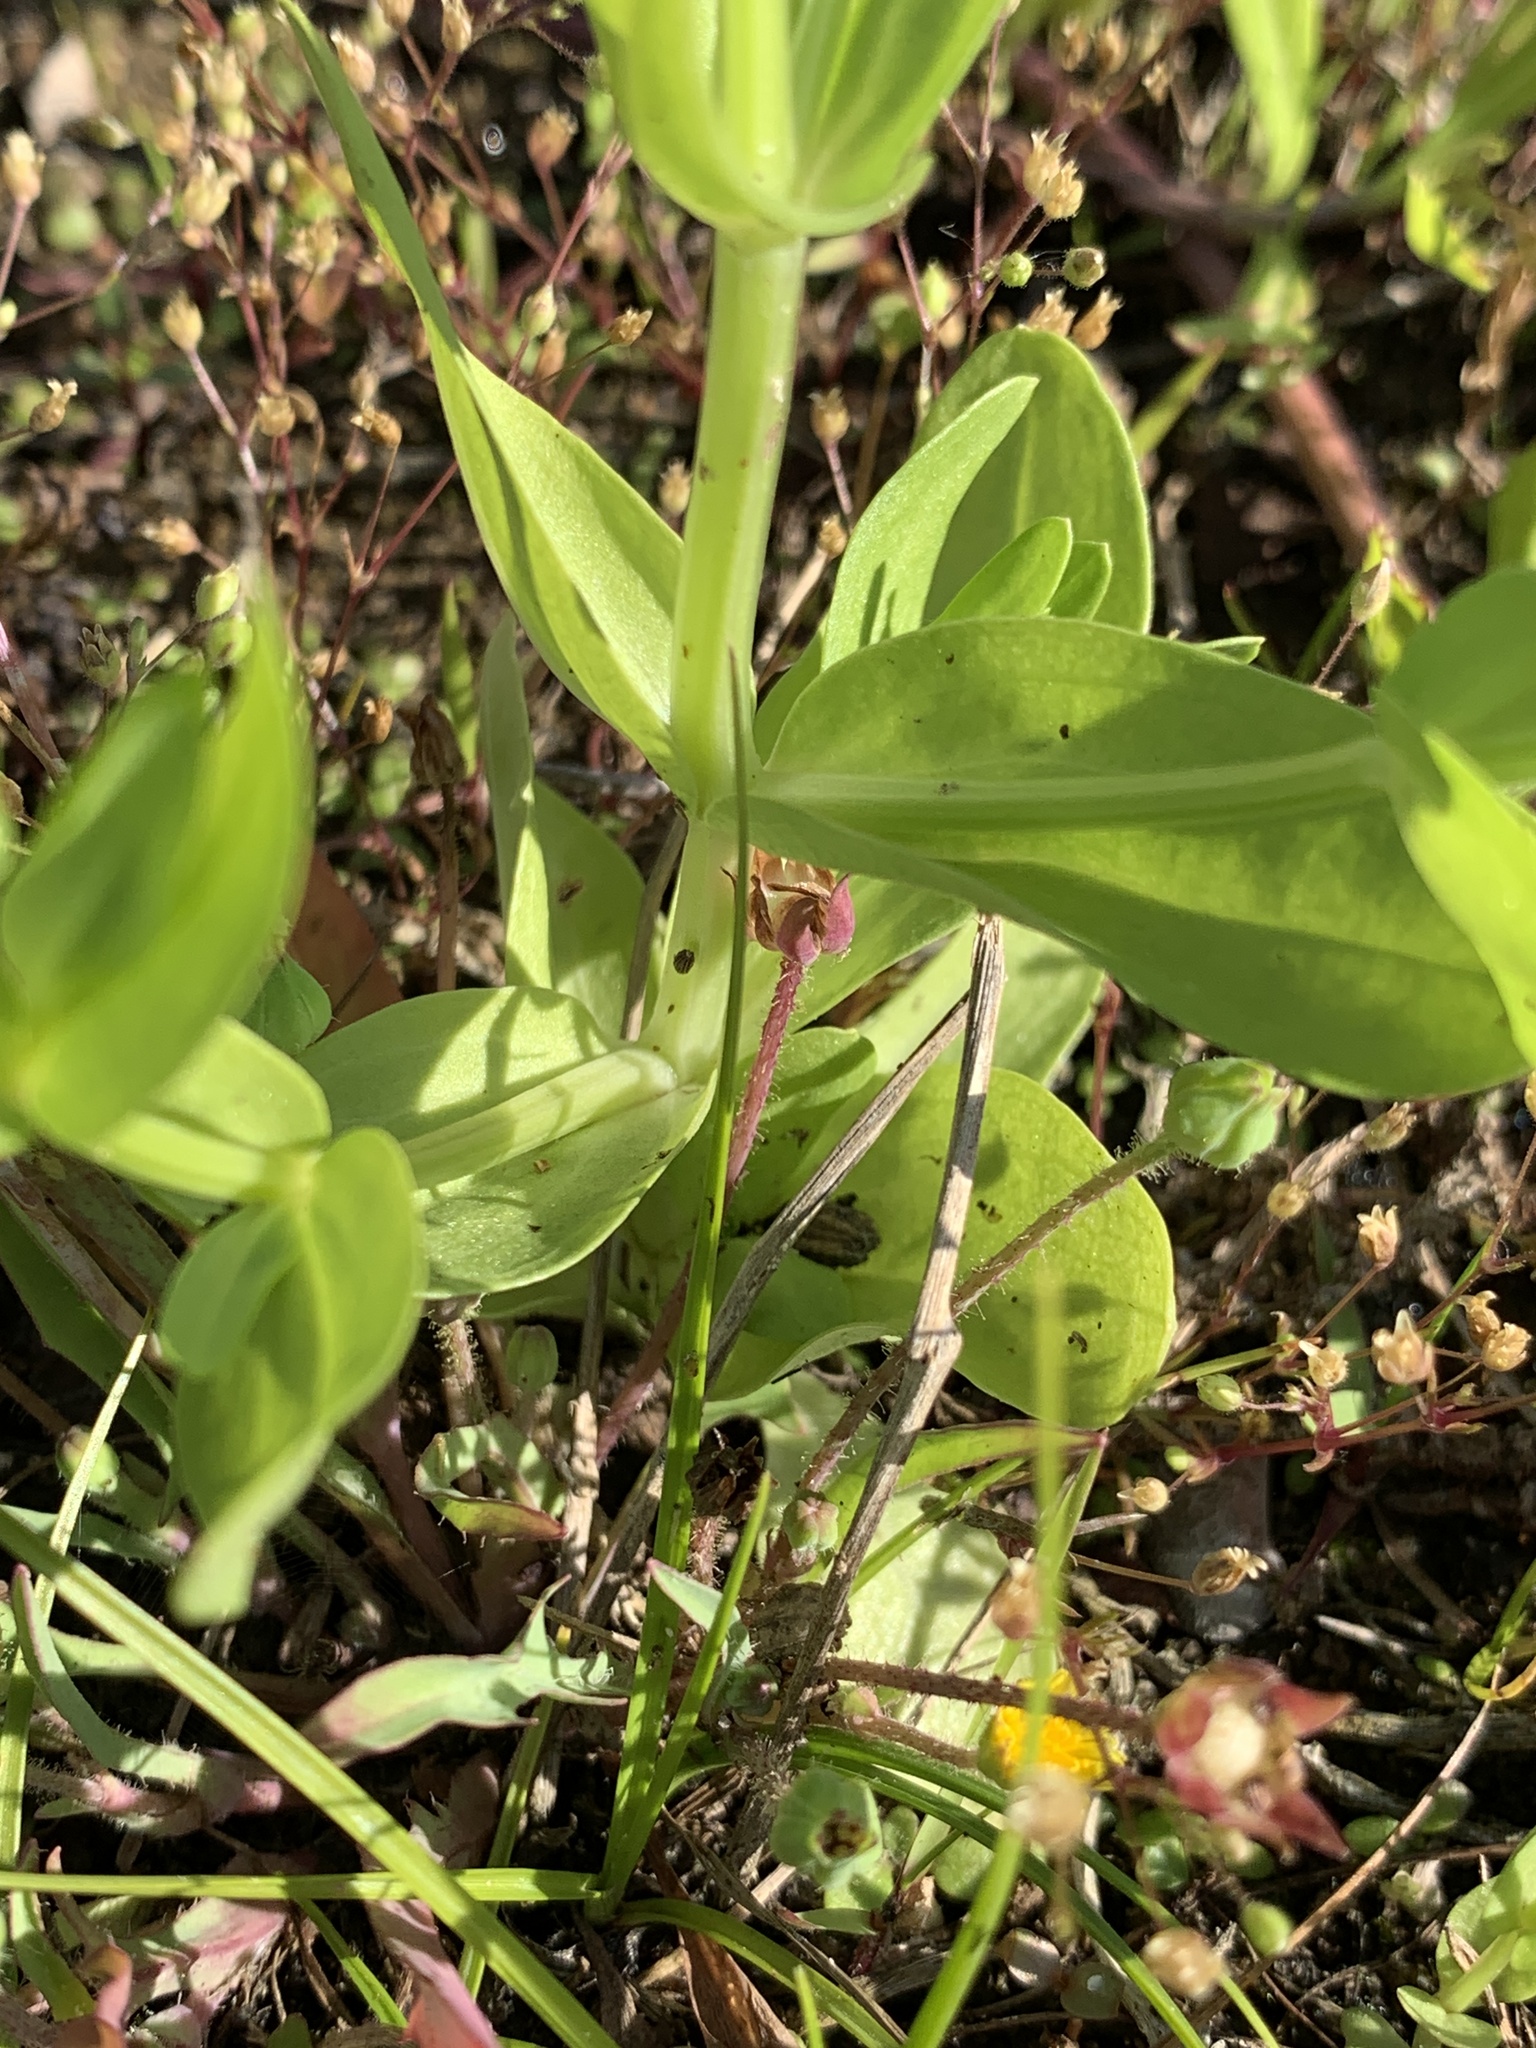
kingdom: Plantae
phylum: Tracheophyta
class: Magnoliopsida
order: Asterales
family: Asteraceae
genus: Rudbeckia
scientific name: Rudbeckia amplexicaulis
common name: Clasping-leaf coneflower
